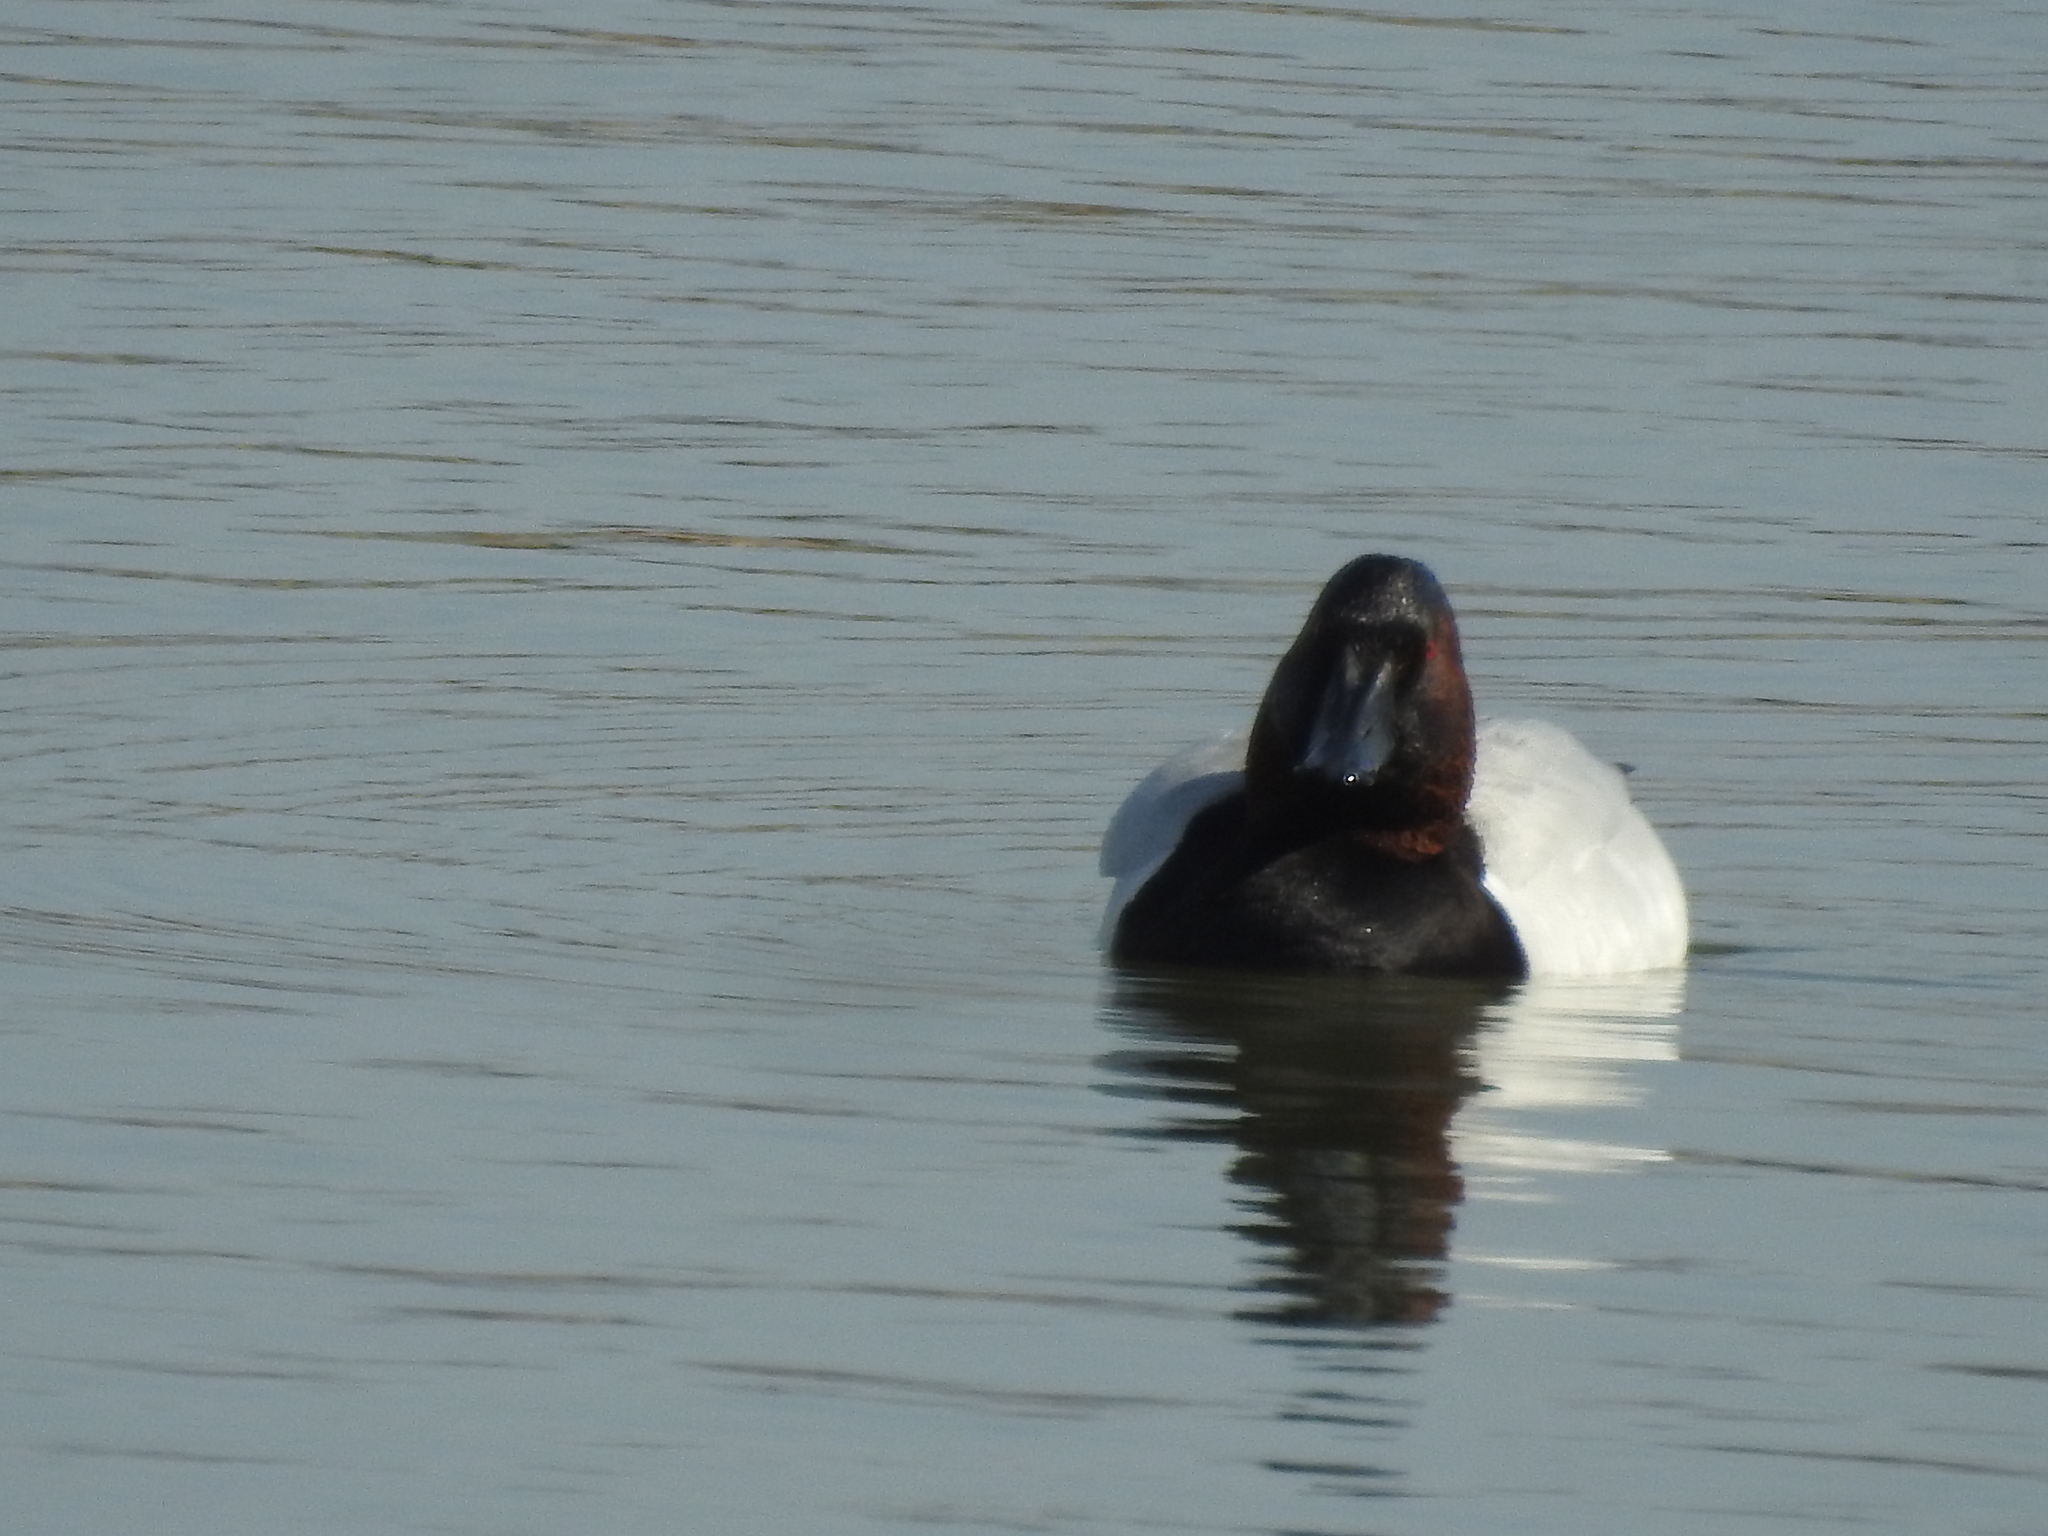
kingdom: Animalia
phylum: Chordata
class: Aves
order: Anseriformes
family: Anatidae
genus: Aythya
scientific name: Aythya valisineria
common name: Canvasback
